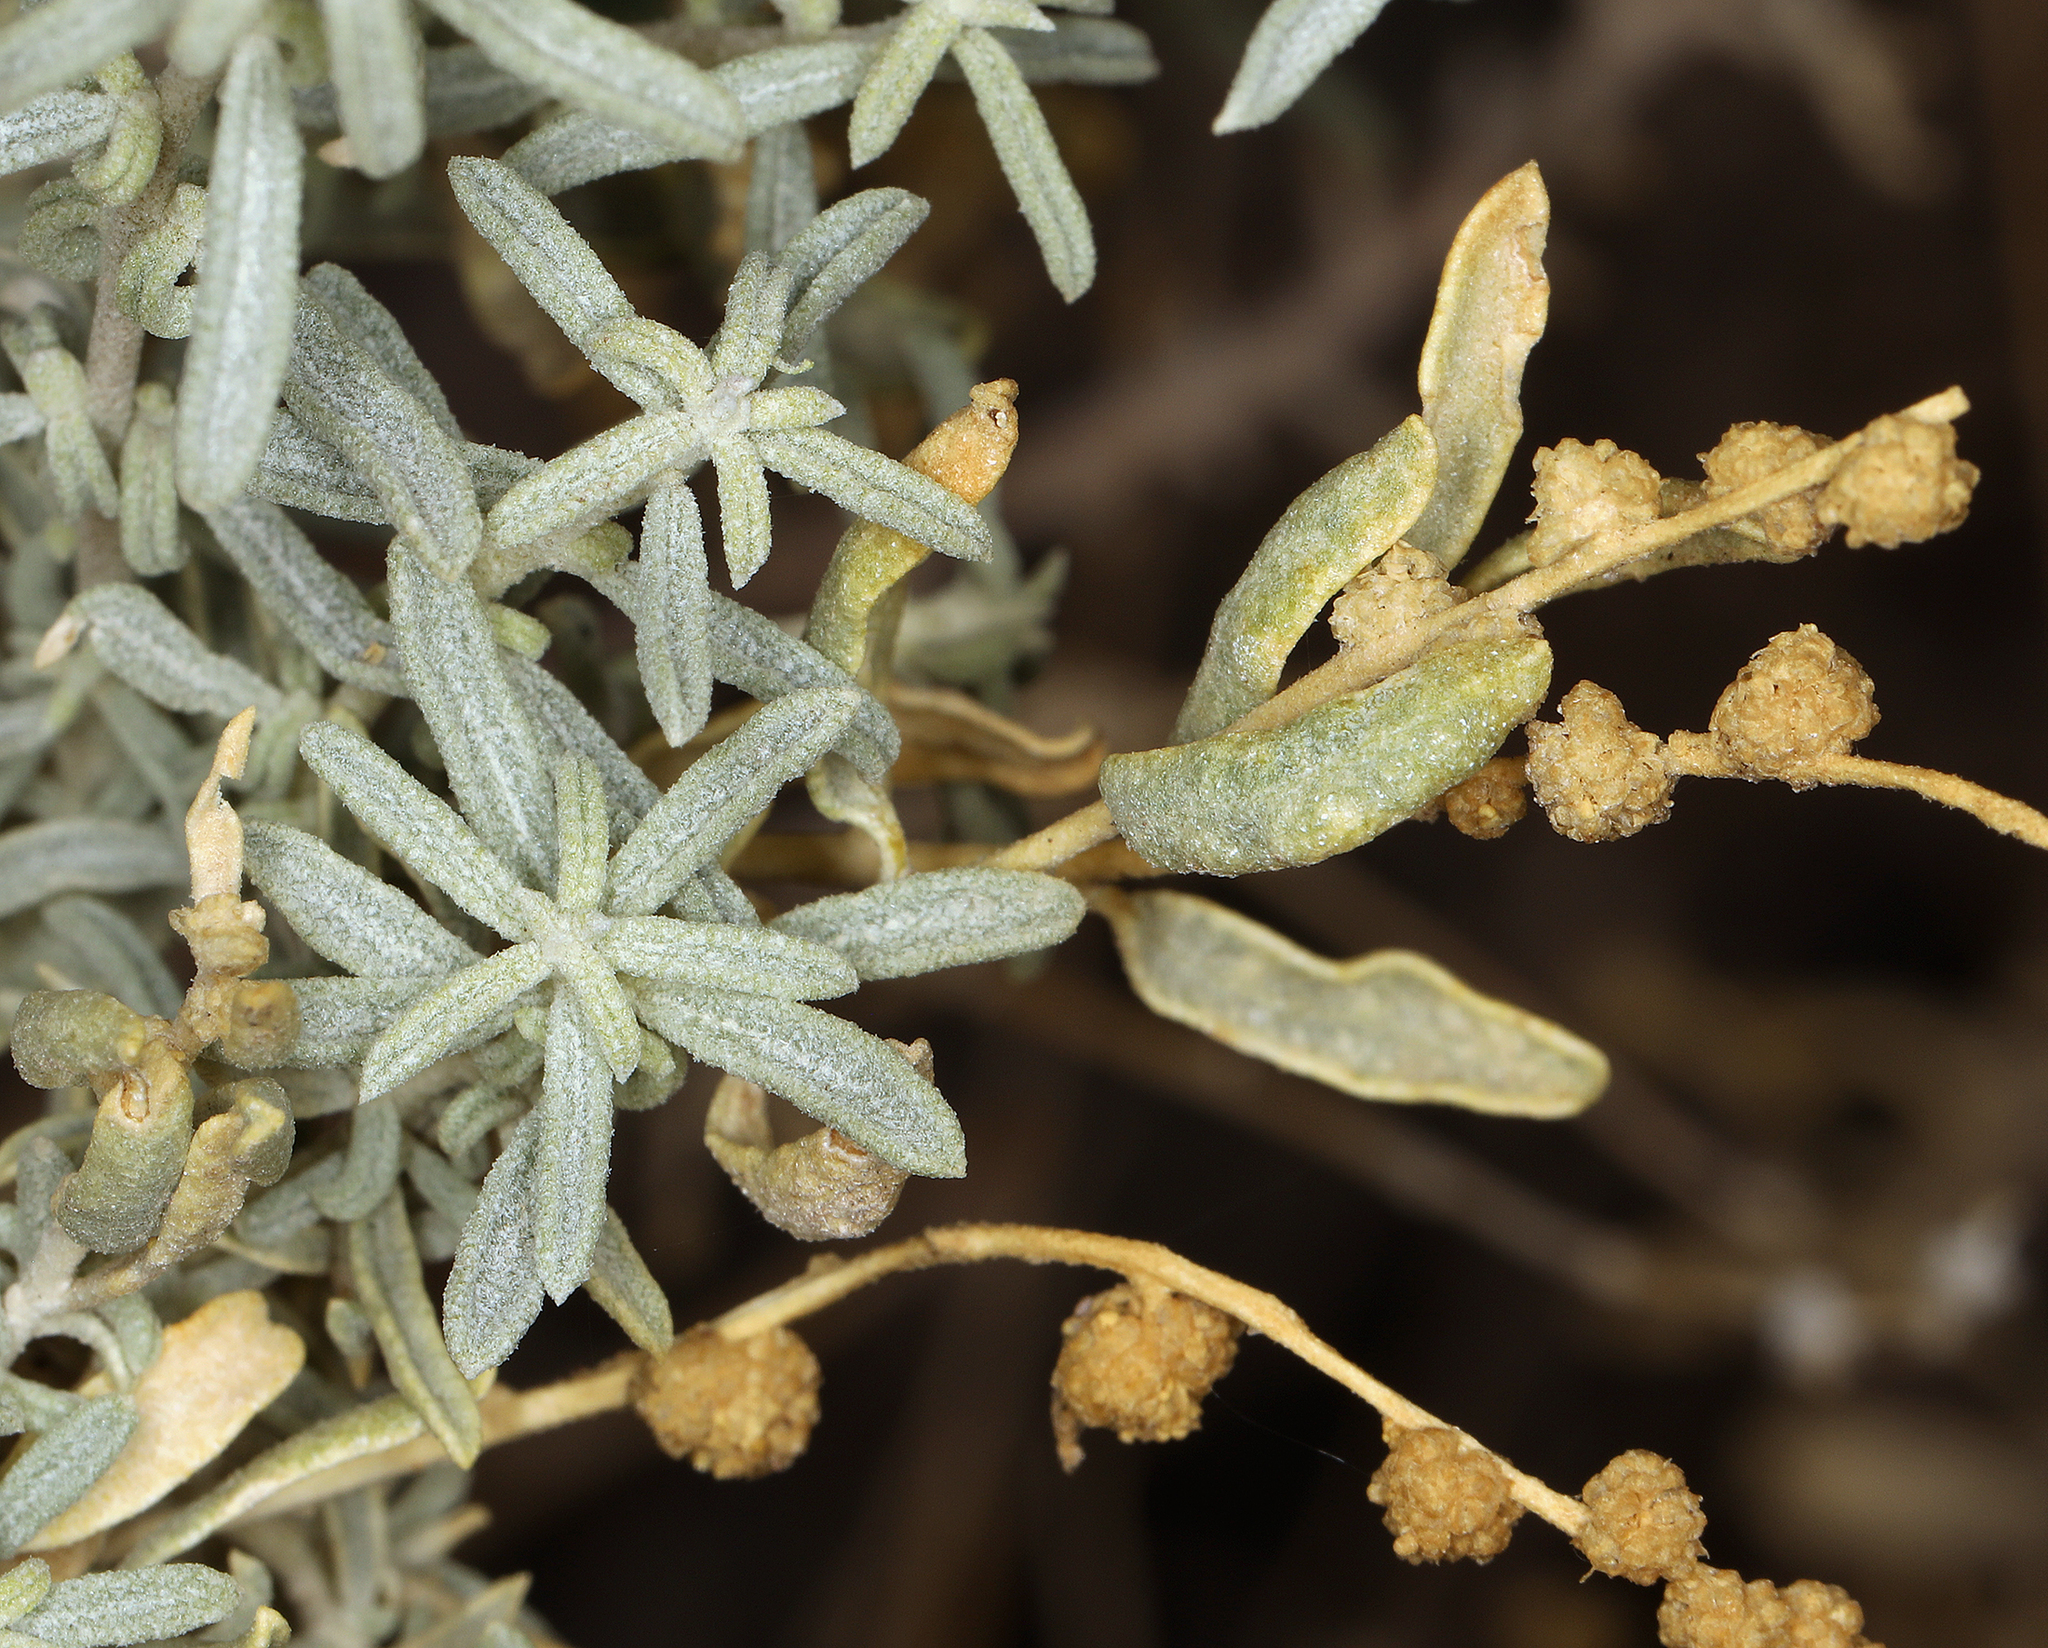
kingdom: Plantae
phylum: Tracheophyta
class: Magnoliopsida
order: Caryophyllales
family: Amaranthaceae
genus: Atriplex
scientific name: Atriplex canescens
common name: Four-wing saltbush
